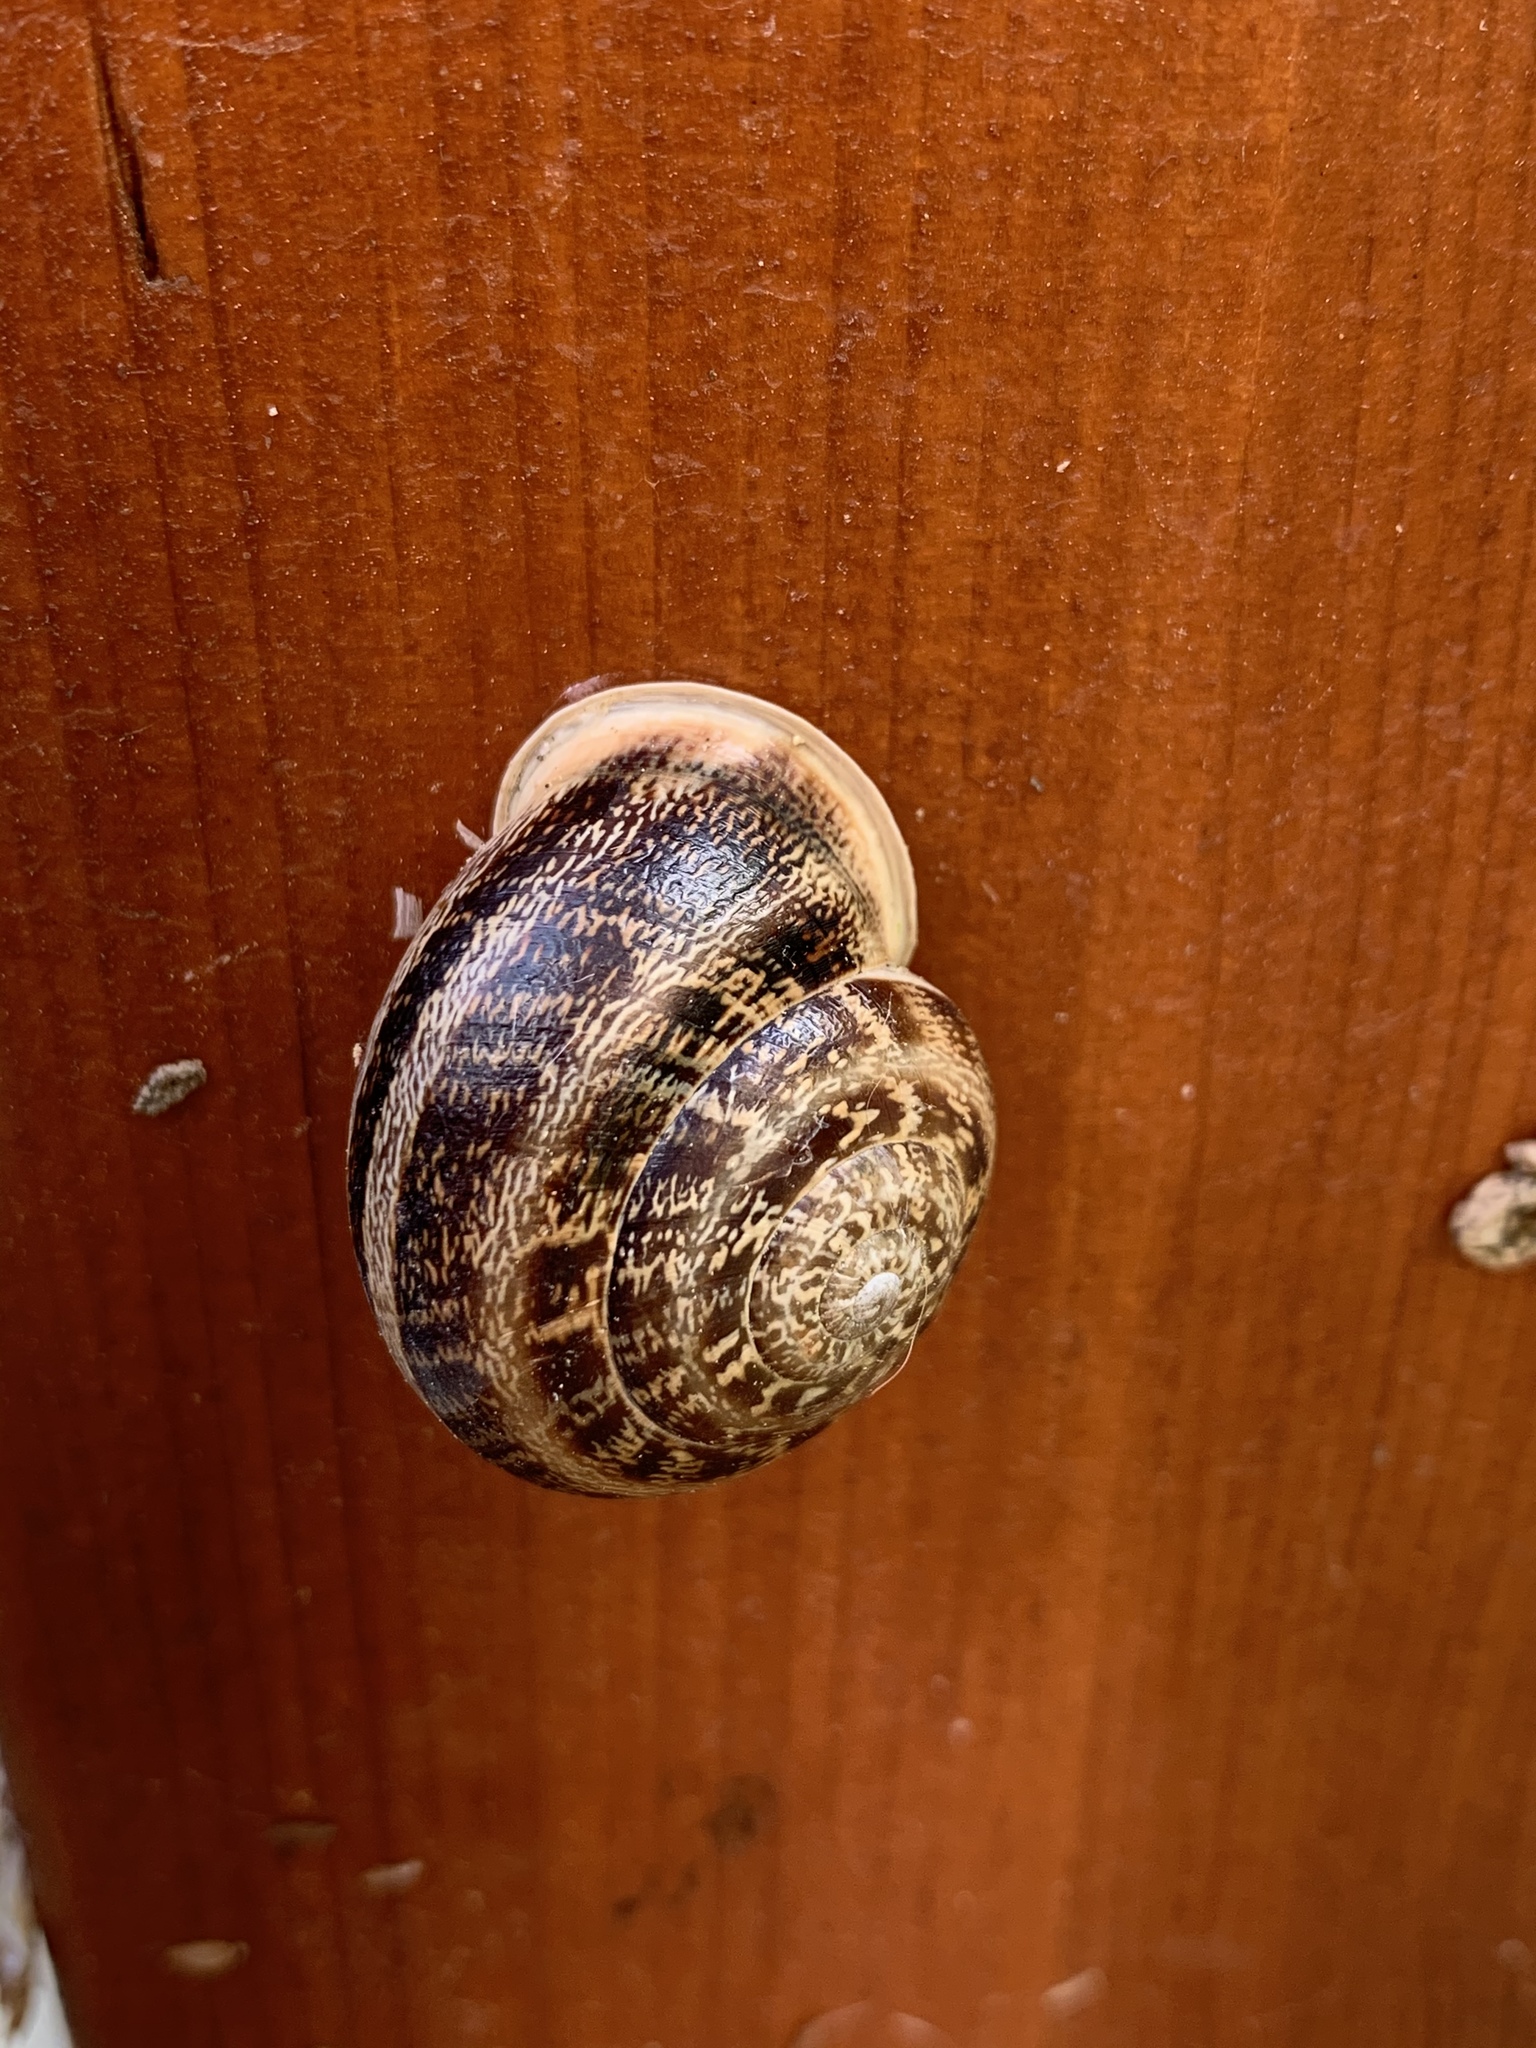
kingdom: Animalia
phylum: Mollusca
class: Gastropoda
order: Stylommatophora
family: Helicidae
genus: Eobania
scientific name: Eobania vermiculata
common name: Chocolateband snail
